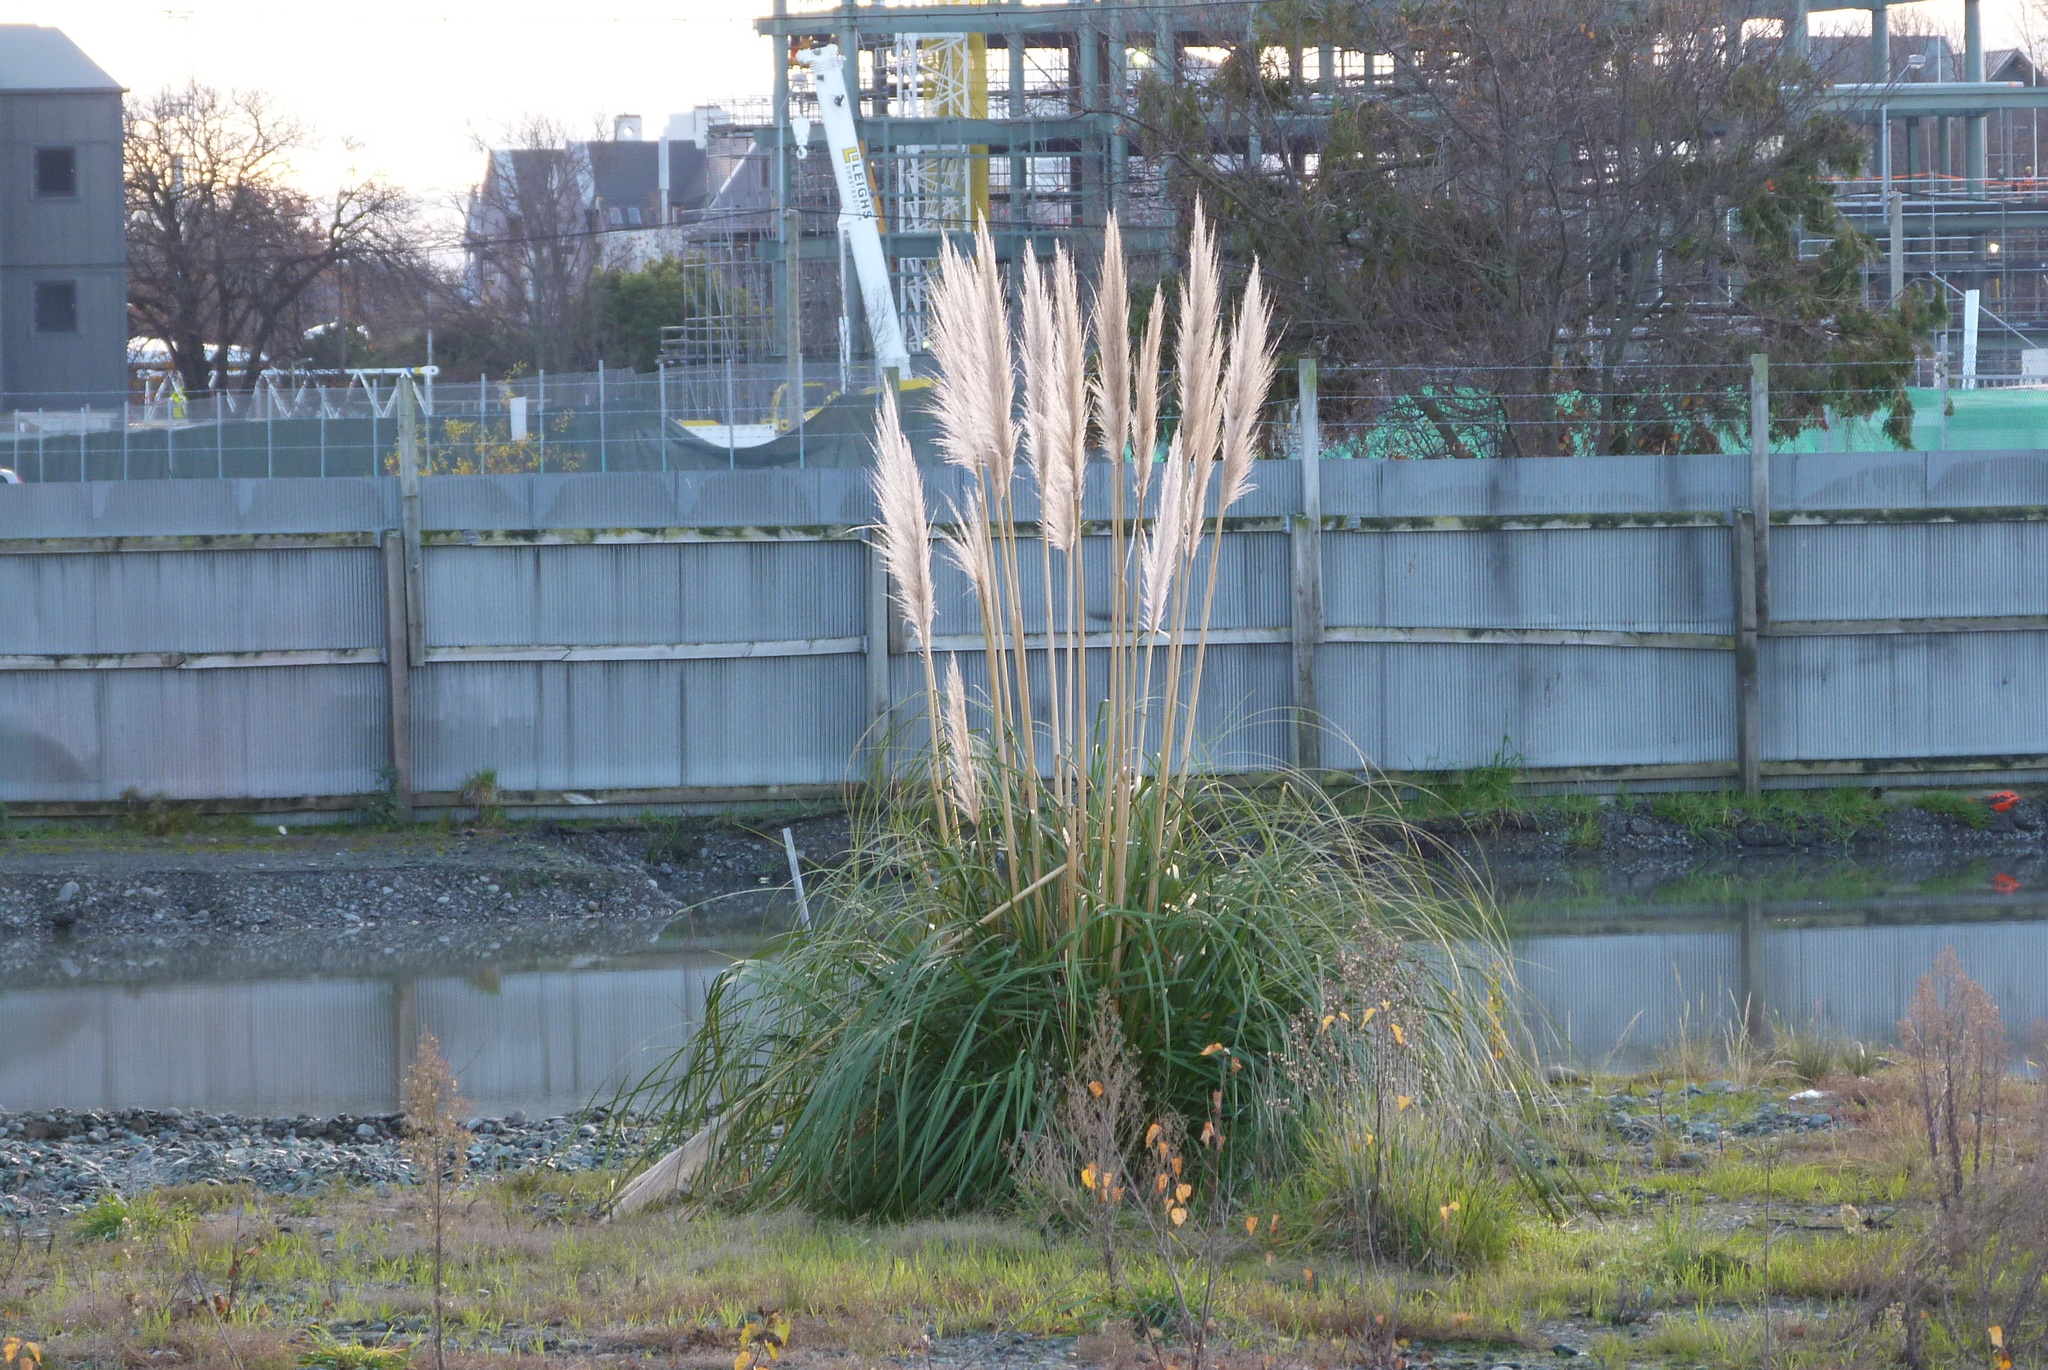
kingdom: Plantae
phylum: Tracheophyta
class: Liliopsida
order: Poales
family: Poaceae
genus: Cortaderia
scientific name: Cortaderia selloana
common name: Uruguayan pampas grass
